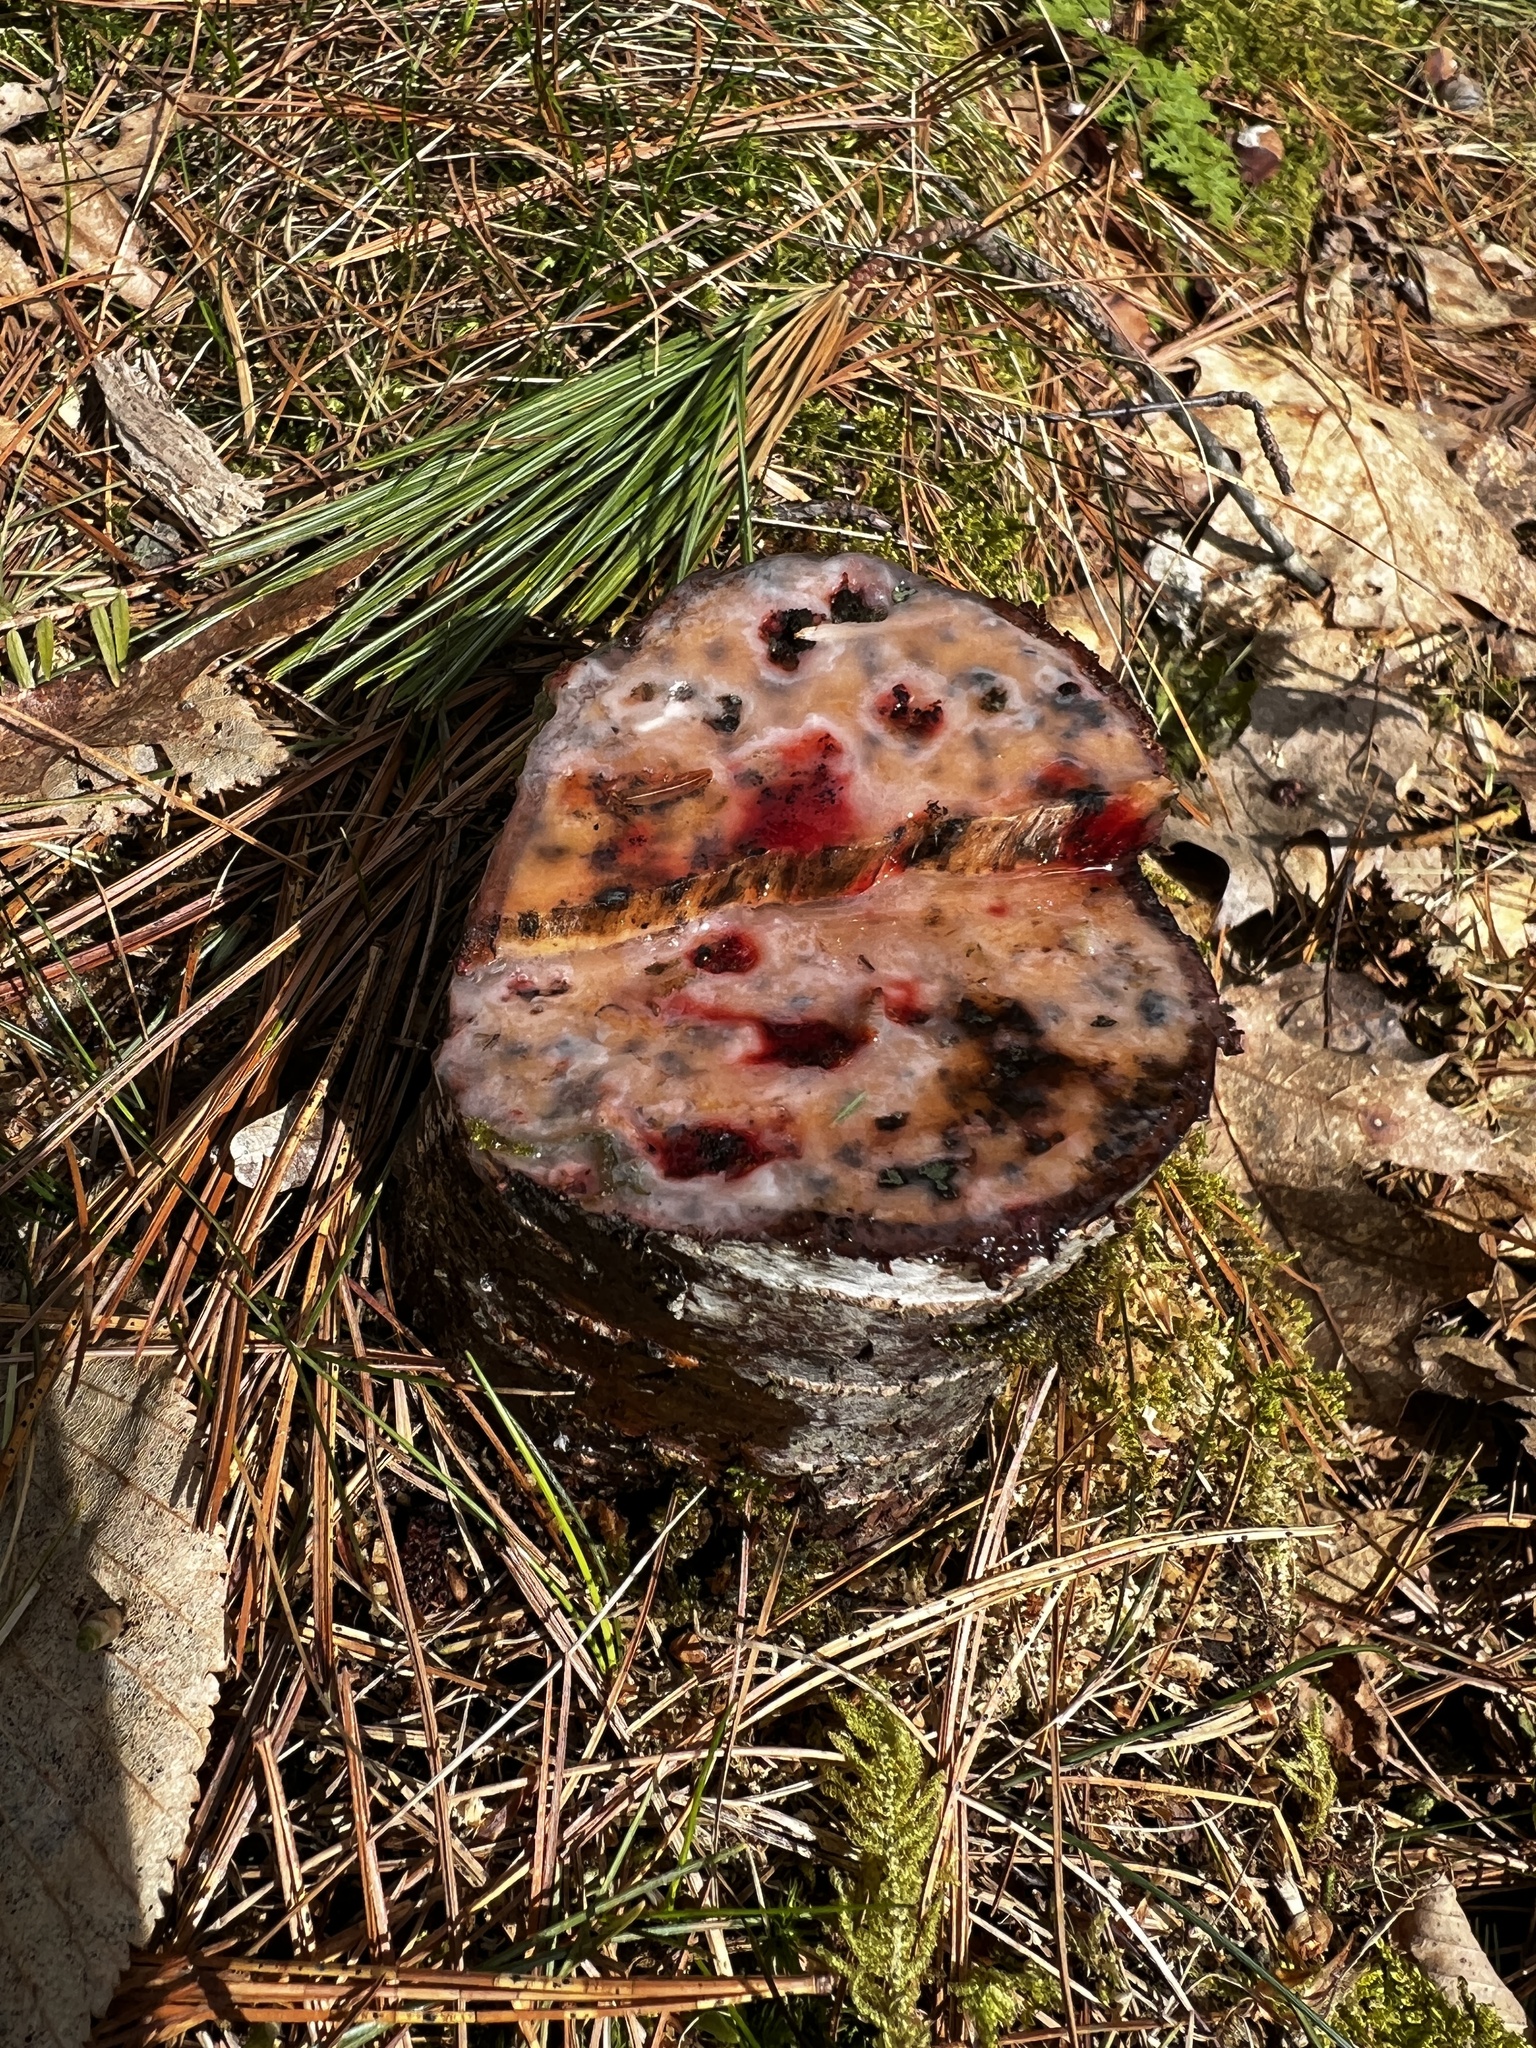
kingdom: Fungi
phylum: Basidiomycota
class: Tremellomycetes
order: Cystofilobasidiales
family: Cystofilobasidiaceae
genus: Cystofilobasidium
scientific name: Cystofilobasidium macerans
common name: Sap yeast
